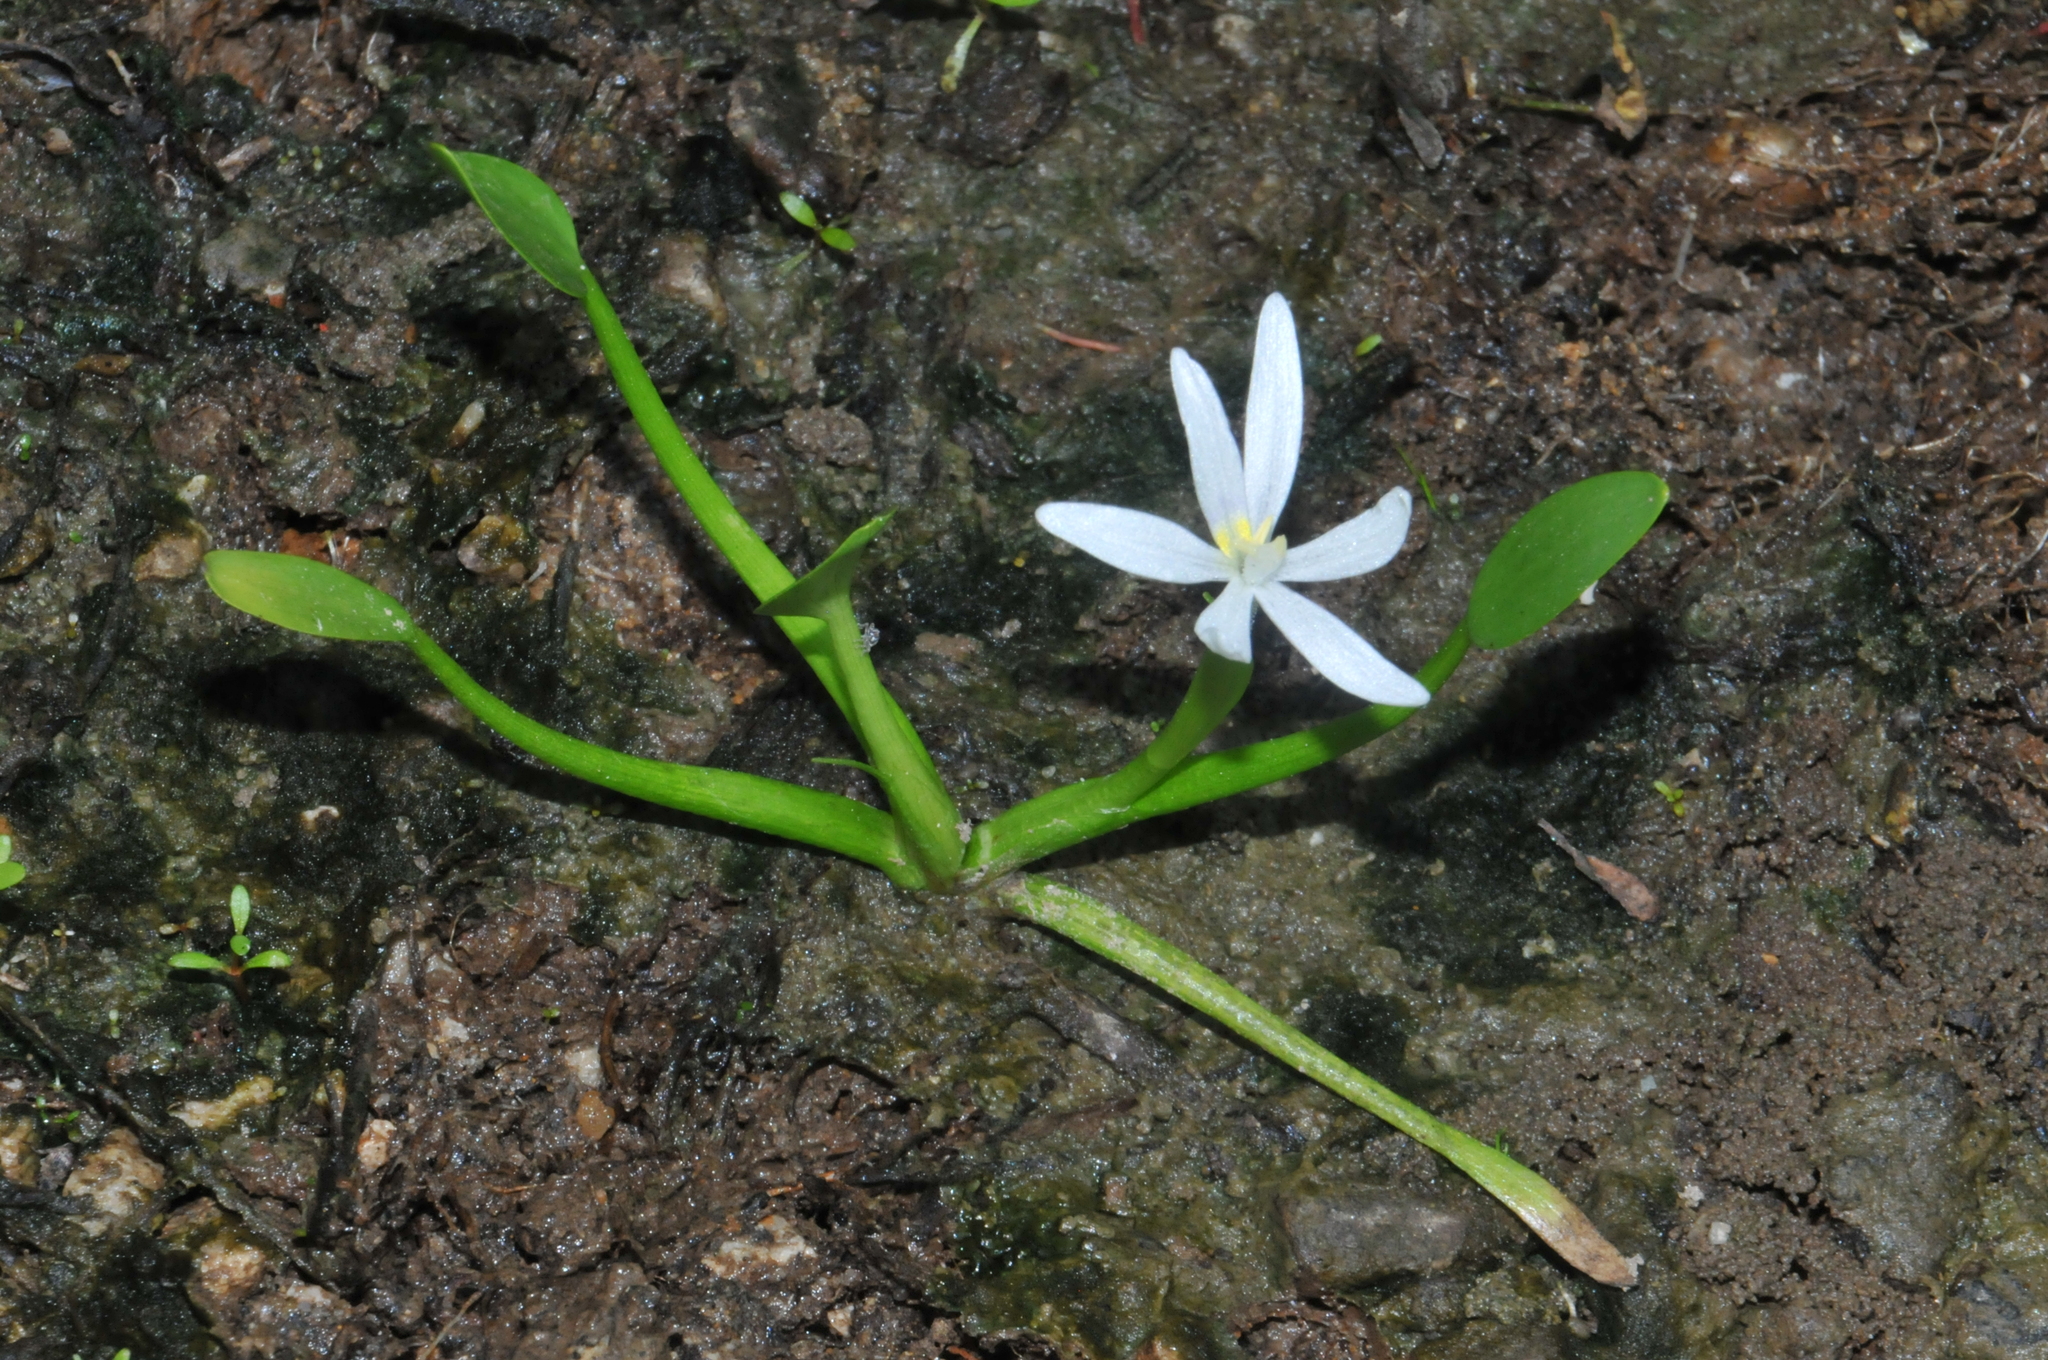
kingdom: Plantae
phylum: Tracheophyta
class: Liliopsida
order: Commelinales
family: Pontederiaceae
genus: Heteranthera
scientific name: Heteranthera limosa
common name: Blue mud-plantain
